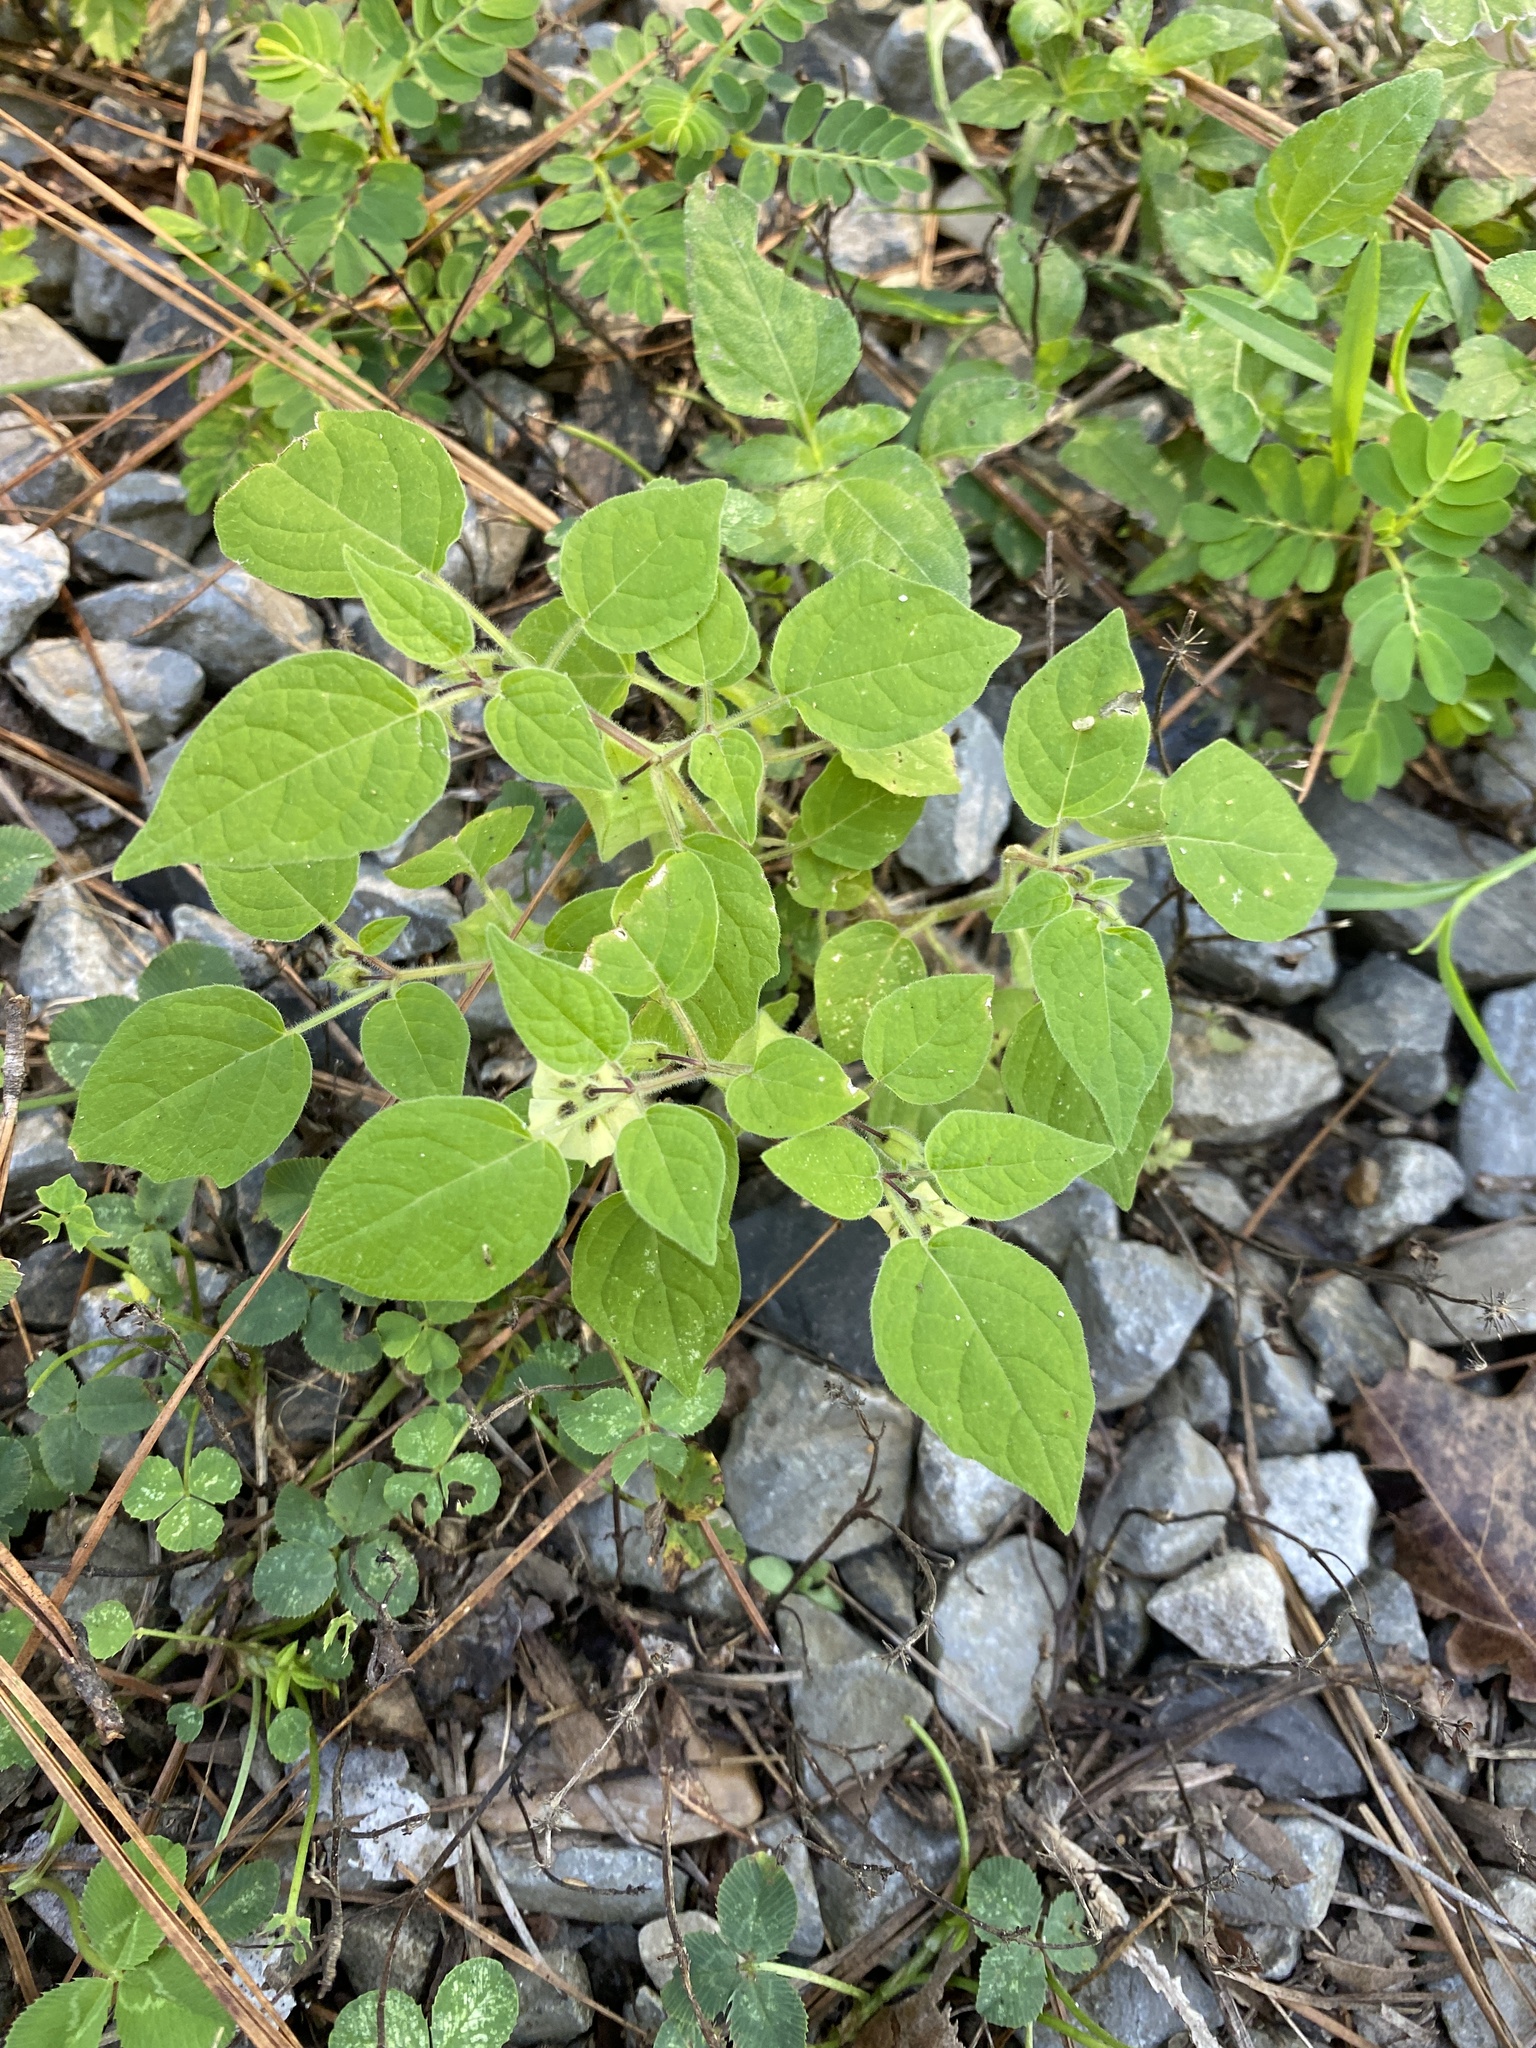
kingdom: Plantae
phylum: Tracheophyta
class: Magnoliopsida
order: Solanales
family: Solanaceae
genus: Physalis
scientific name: Physalis pubescens
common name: Downy ground-cherry
